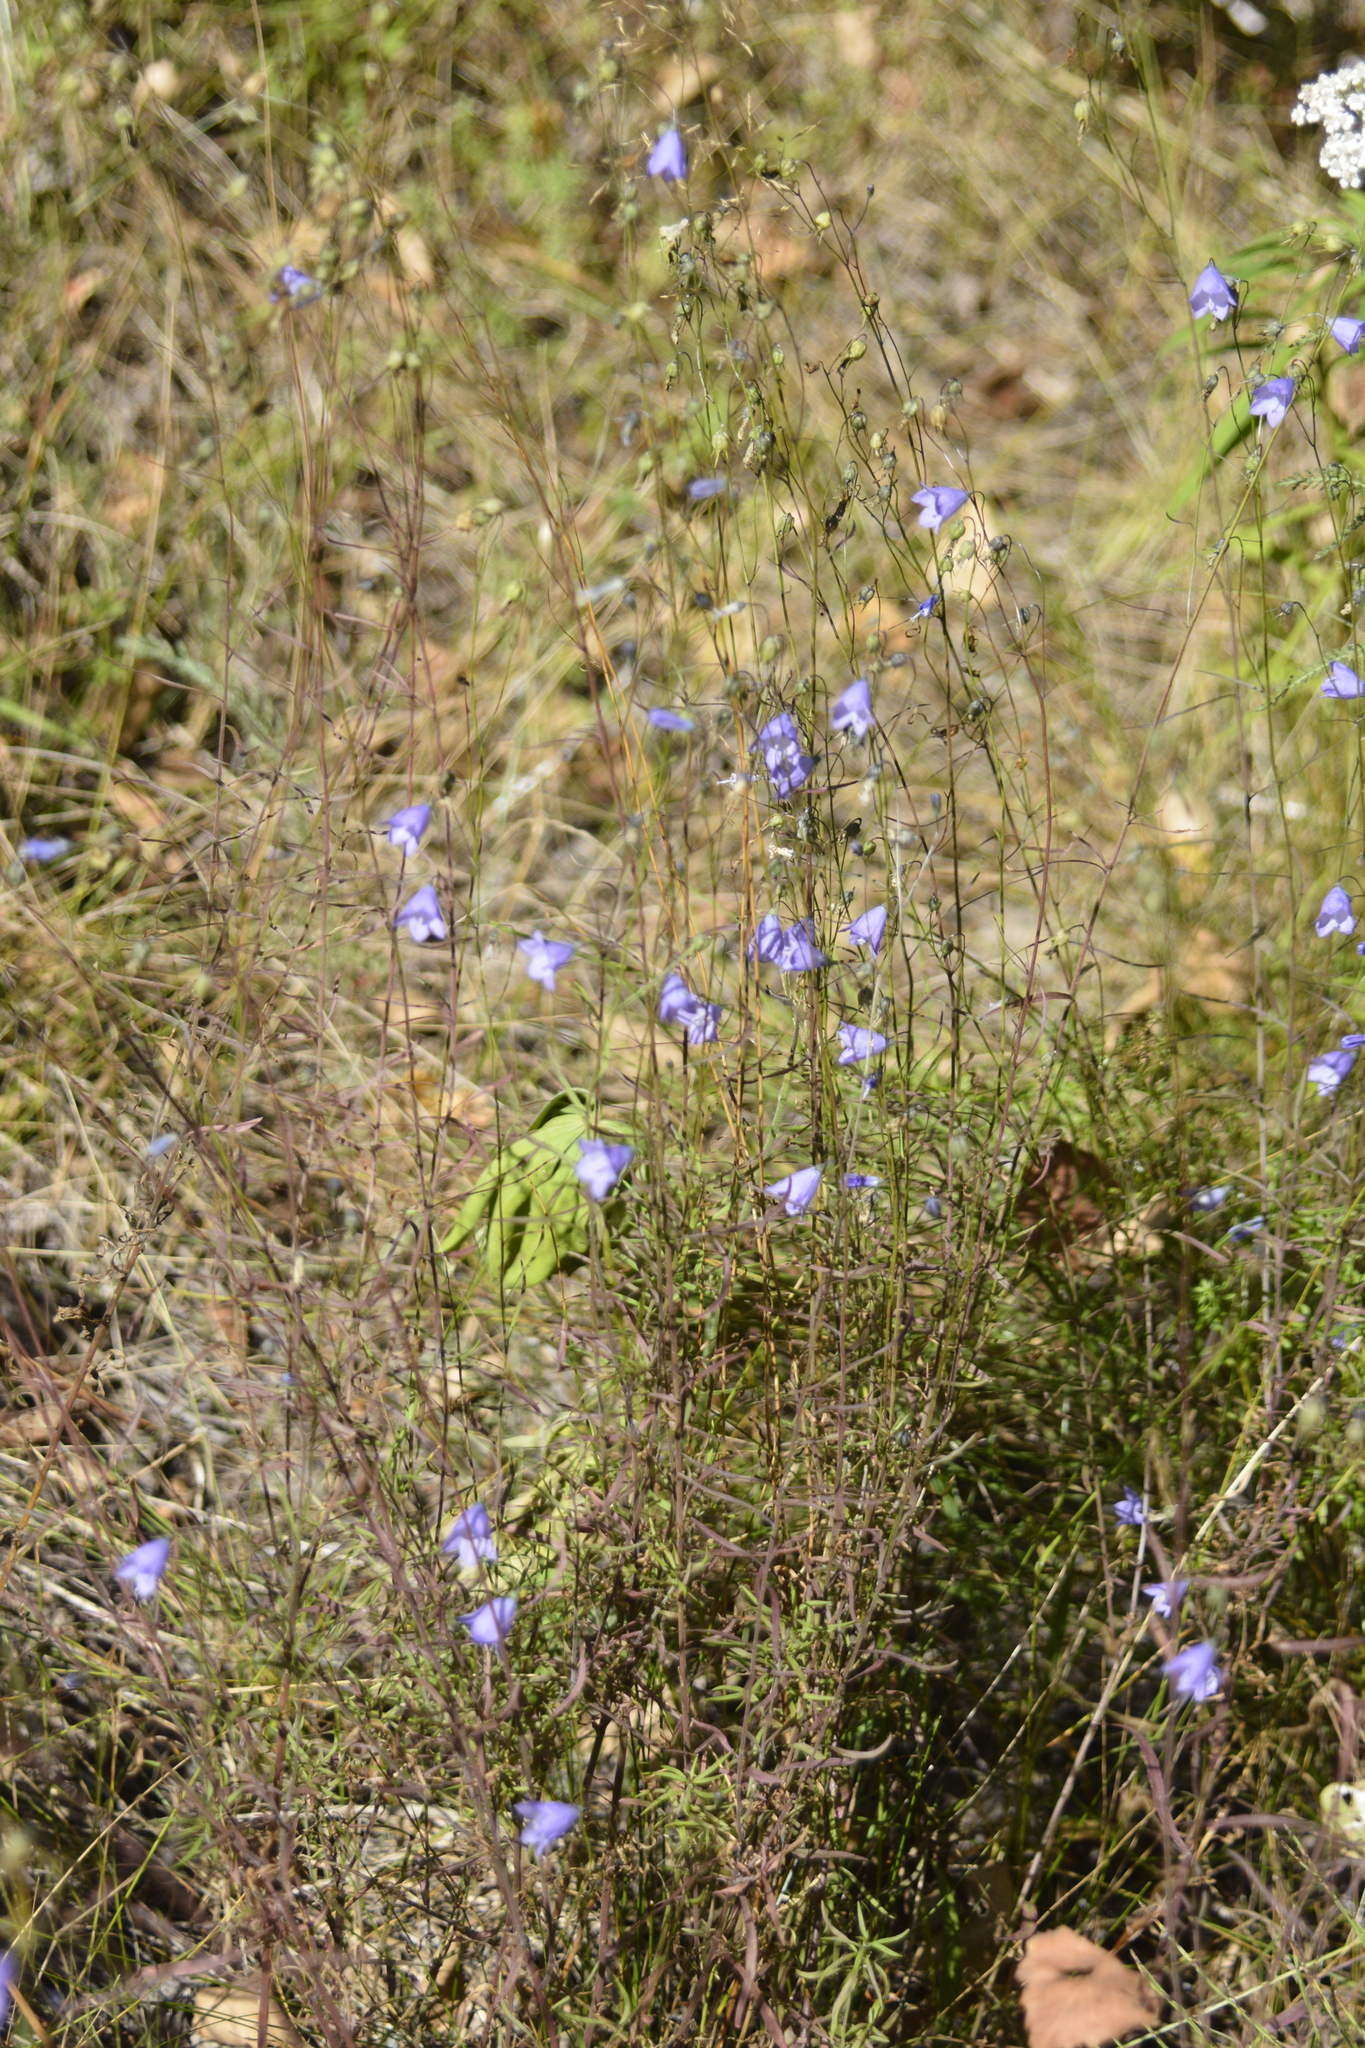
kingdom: Plantae
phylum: Tracheophyta
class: Magnoliopsida
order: Asterales
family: Campanulaceae
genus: Campanula
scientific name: Campanula rotundifolia
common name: Harebell
